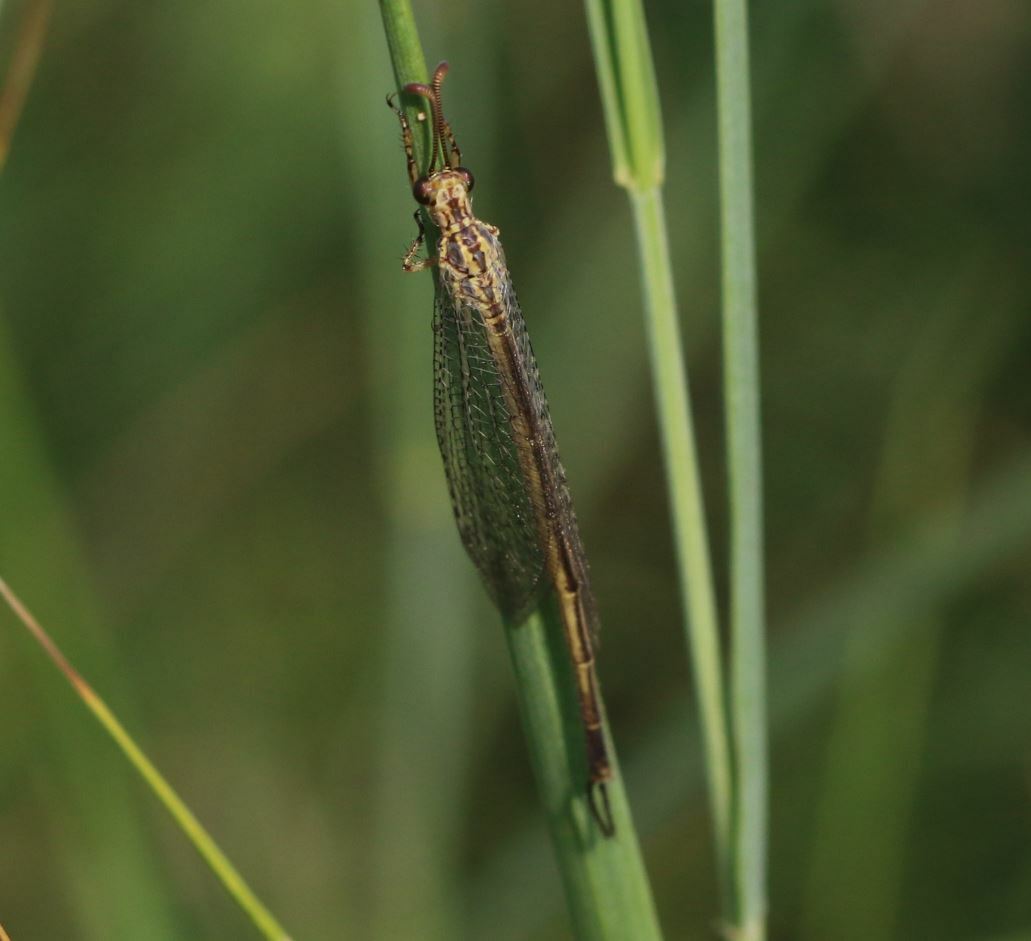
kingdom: Animalia
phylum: Arthropoda
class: Insecta
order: Neuroptera
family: Myrmeleontidae
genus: Macronemurus
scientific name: Macronemurus appendiculatus
